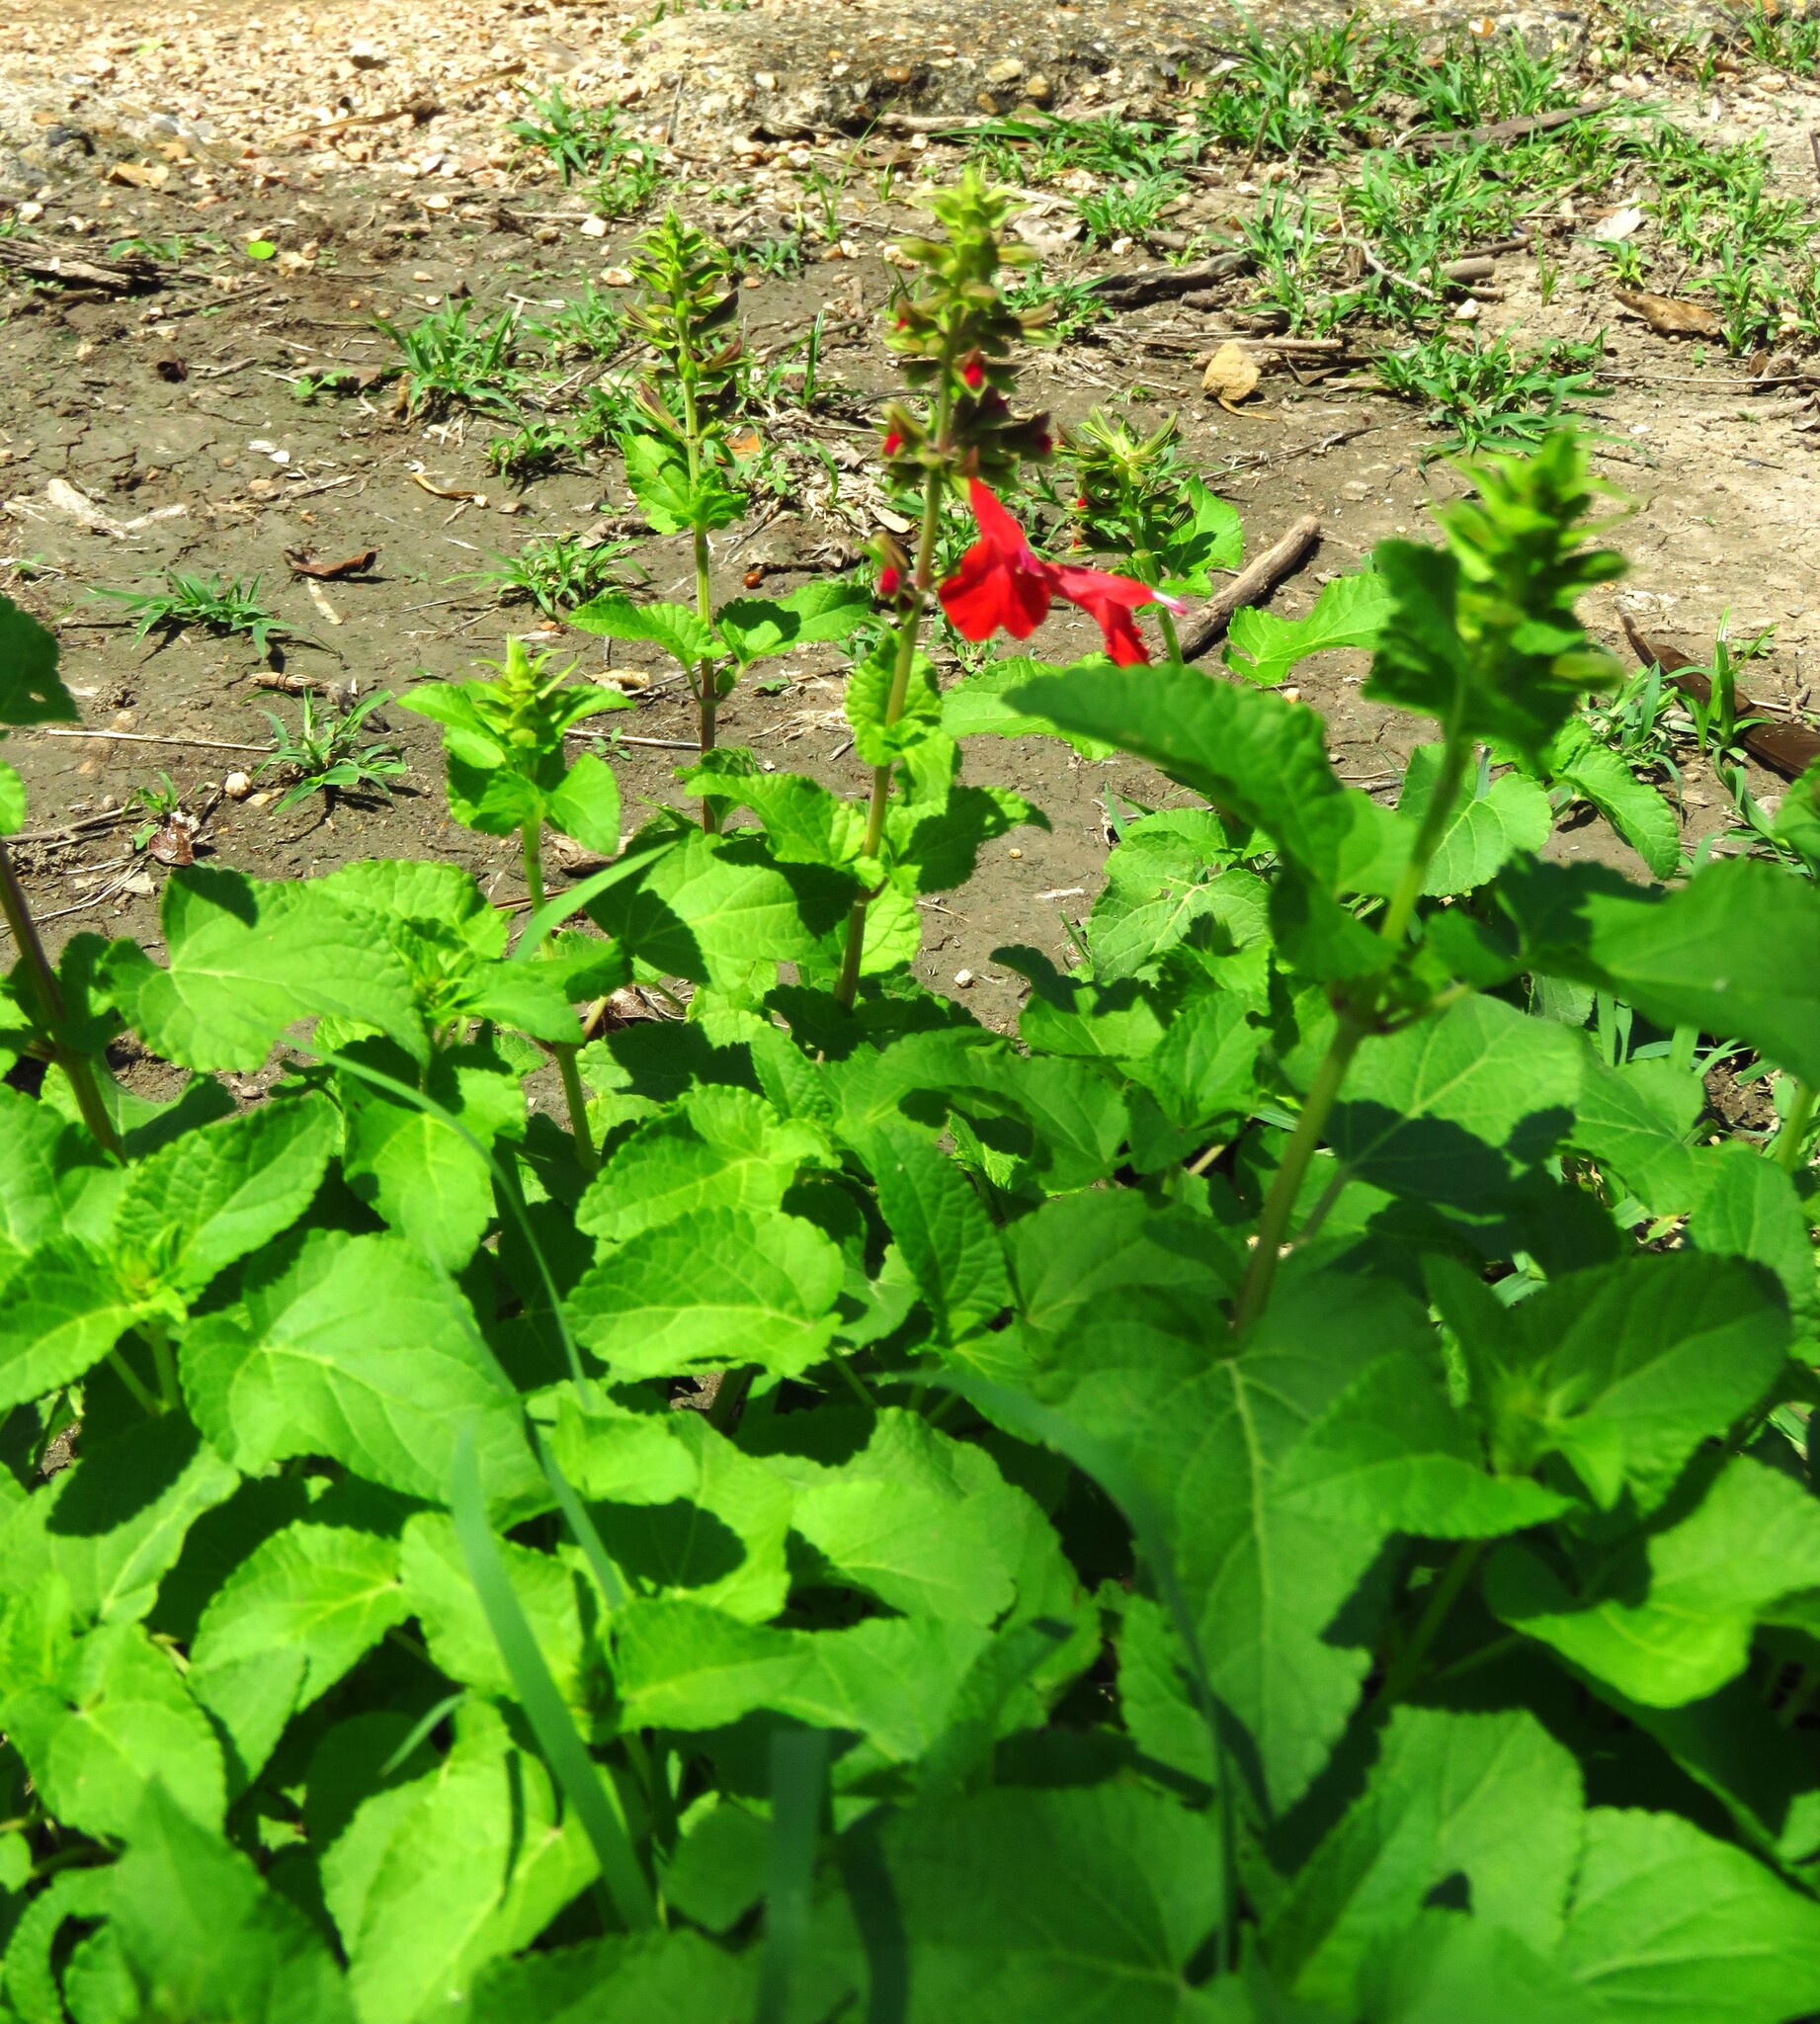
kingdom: Plantae
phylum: Tracheophyta
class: Magnoliopsida
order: Lamiales
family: Lamiaceae
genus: Salvia
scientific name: Salvia coccinea
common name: Blood sage
